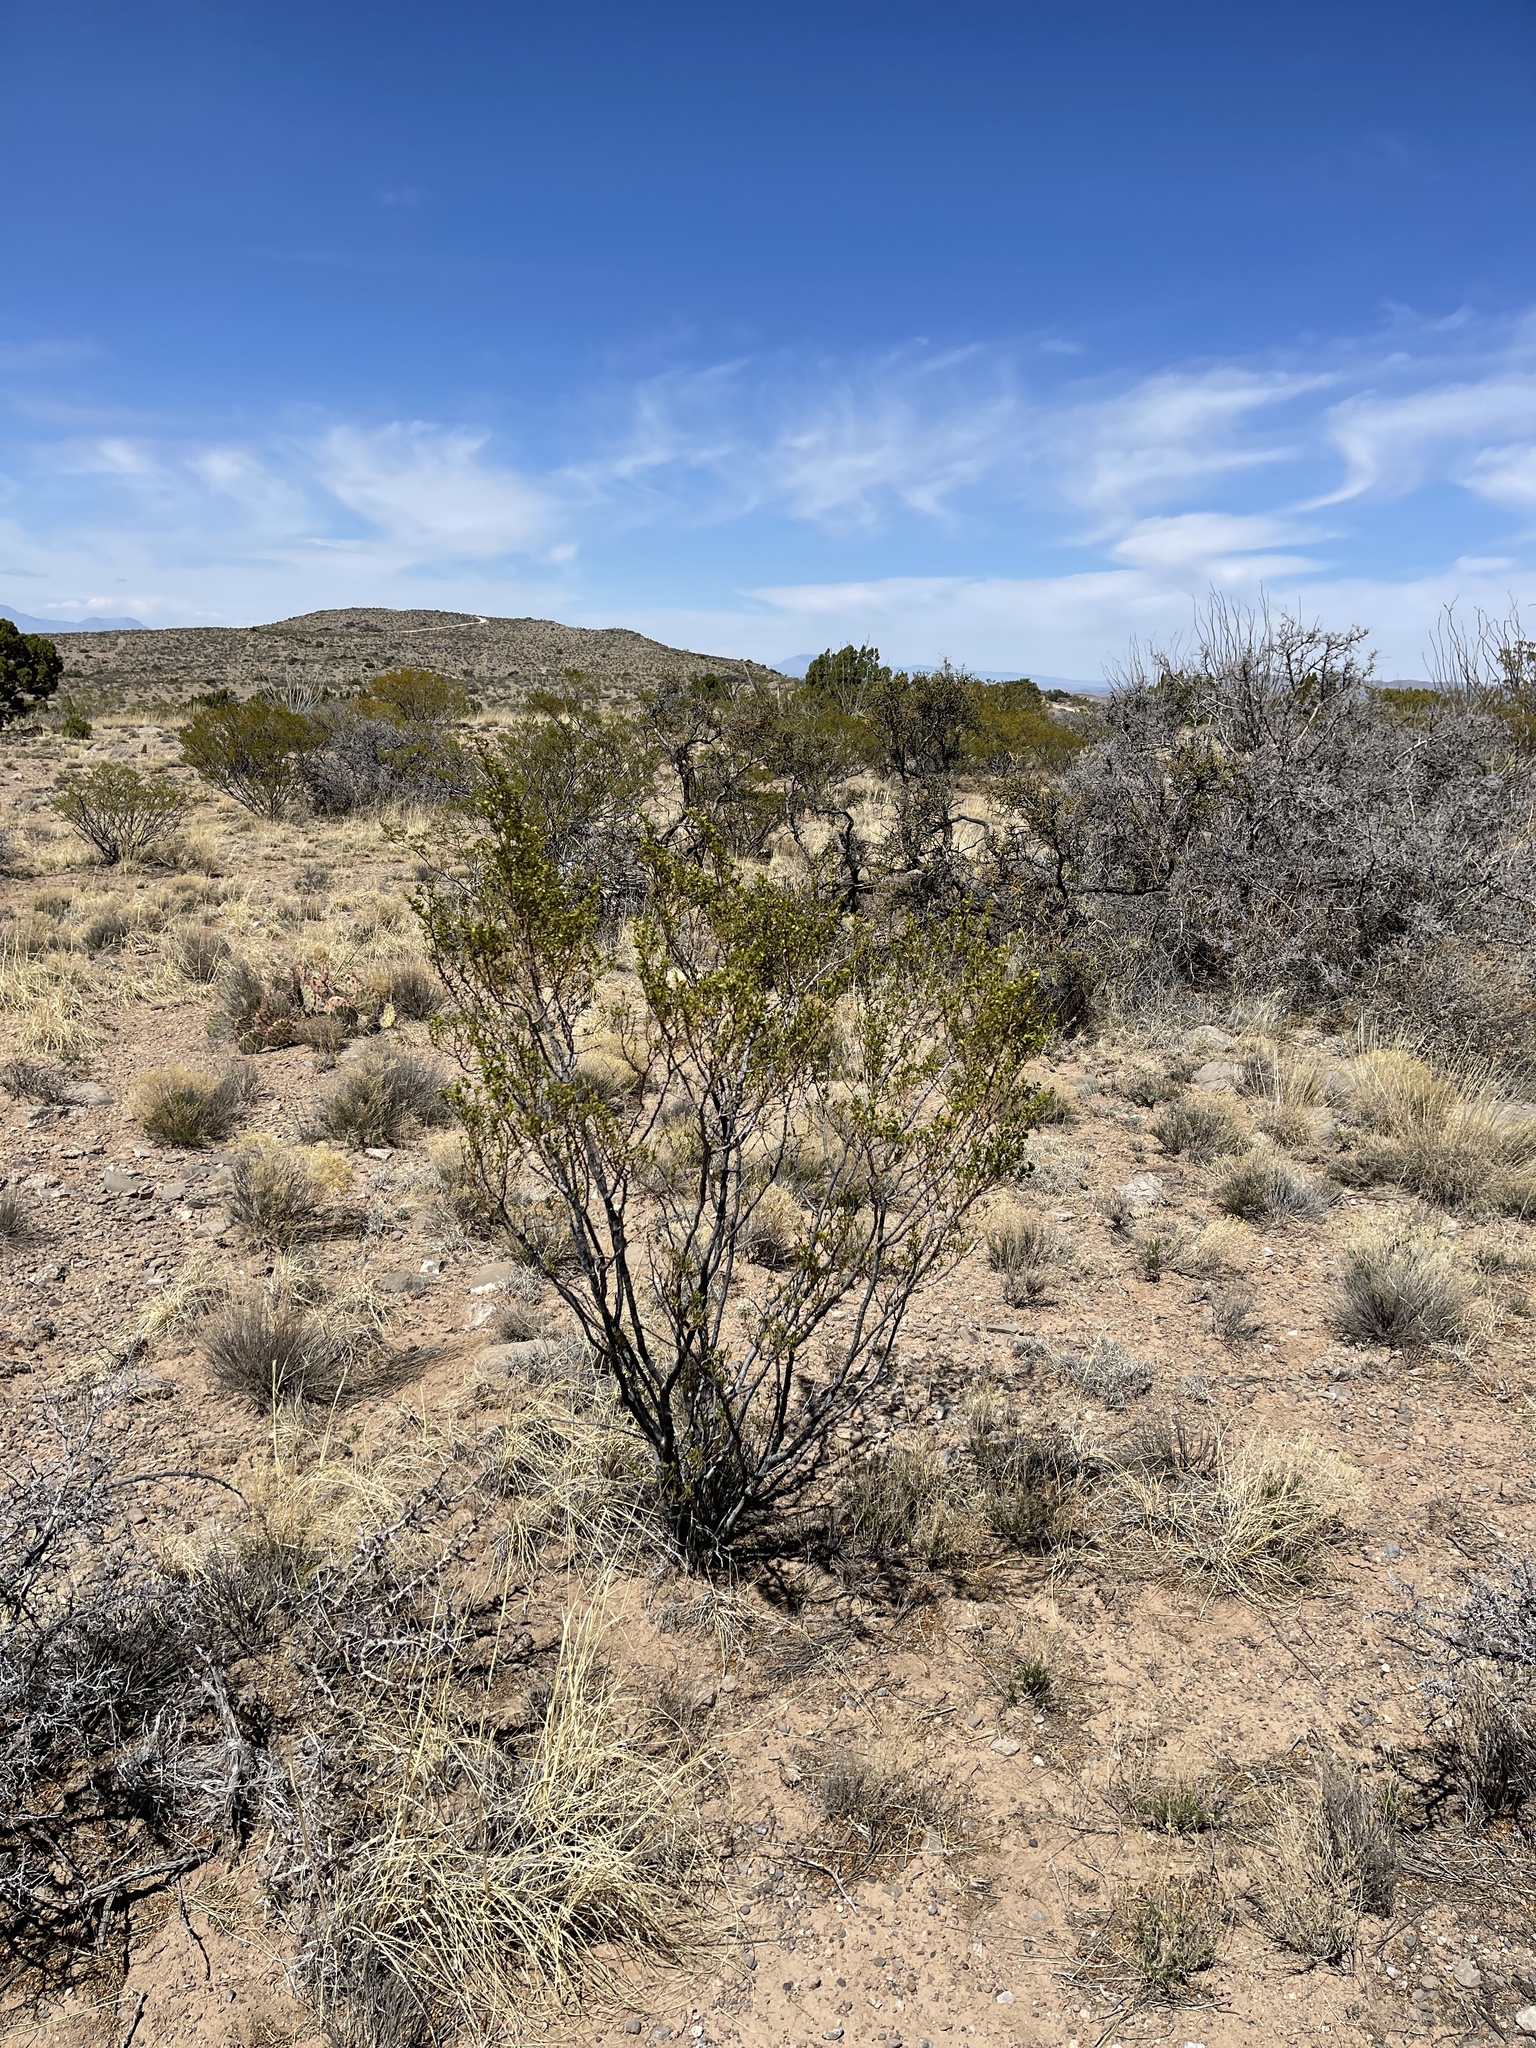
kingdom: Plantae
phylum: Tracheophyta
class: Magnoliopsida
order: Zygophyllales
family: Zygophyllaceae
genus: Larrea
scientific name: Larrea tridentata
